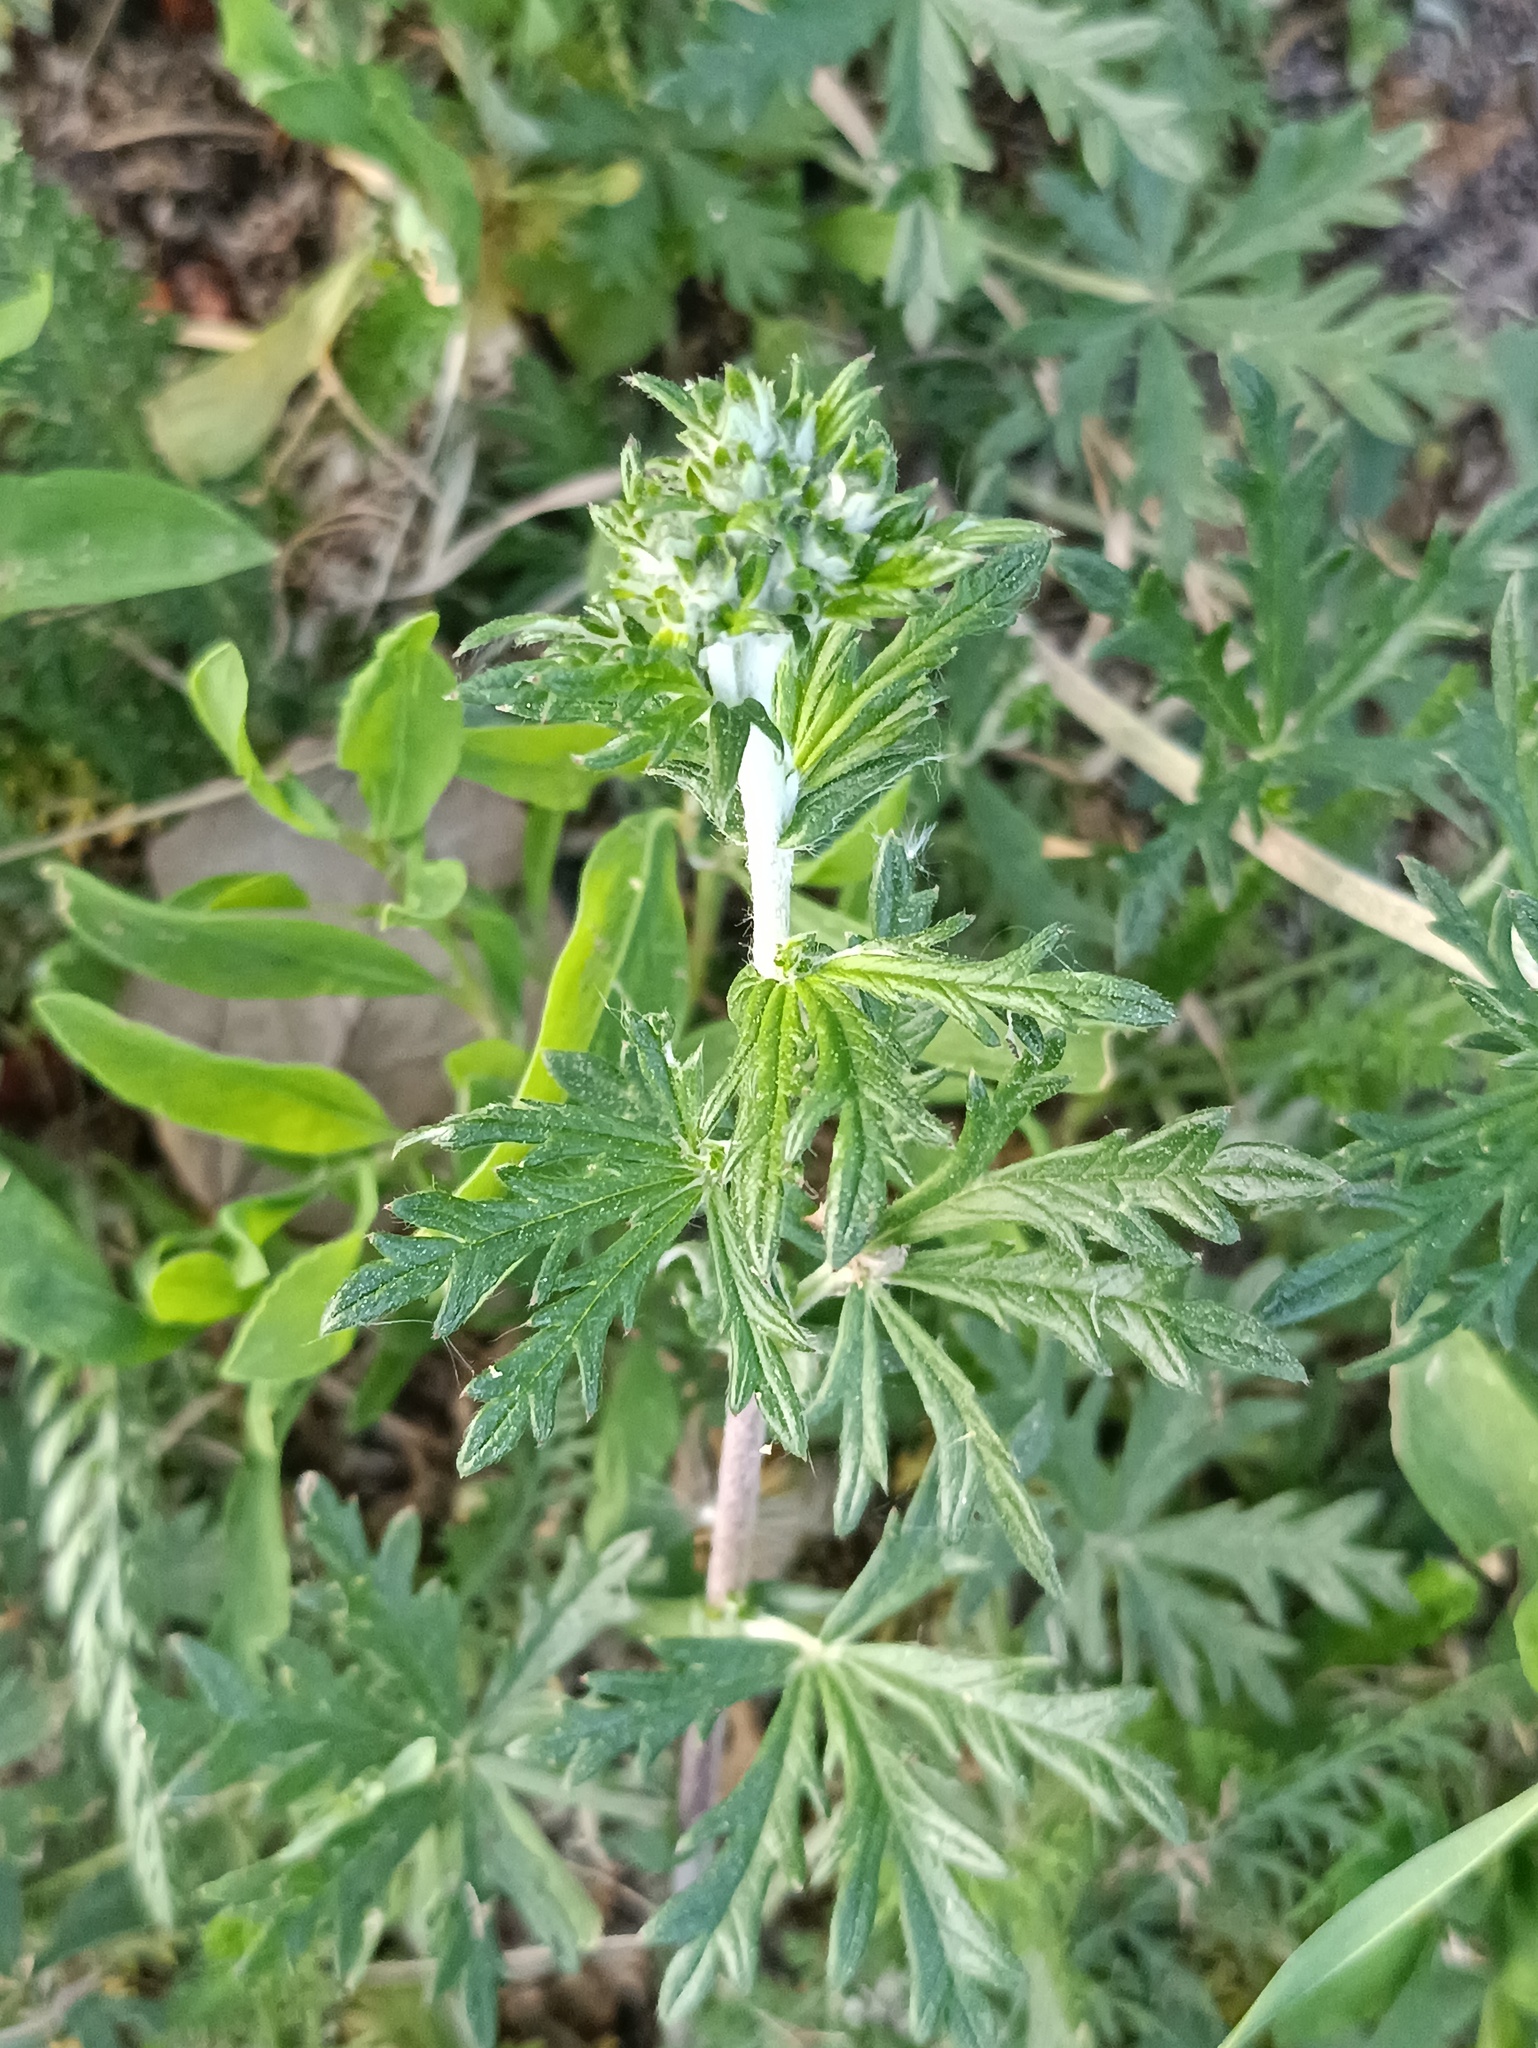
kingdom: Plantae
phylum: Tracheophyta
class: Magnoliopsida
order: Rosales
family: Rosaceae
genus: Potentilla
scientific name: Potentilla argentea
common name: Hoary cinquefoil
